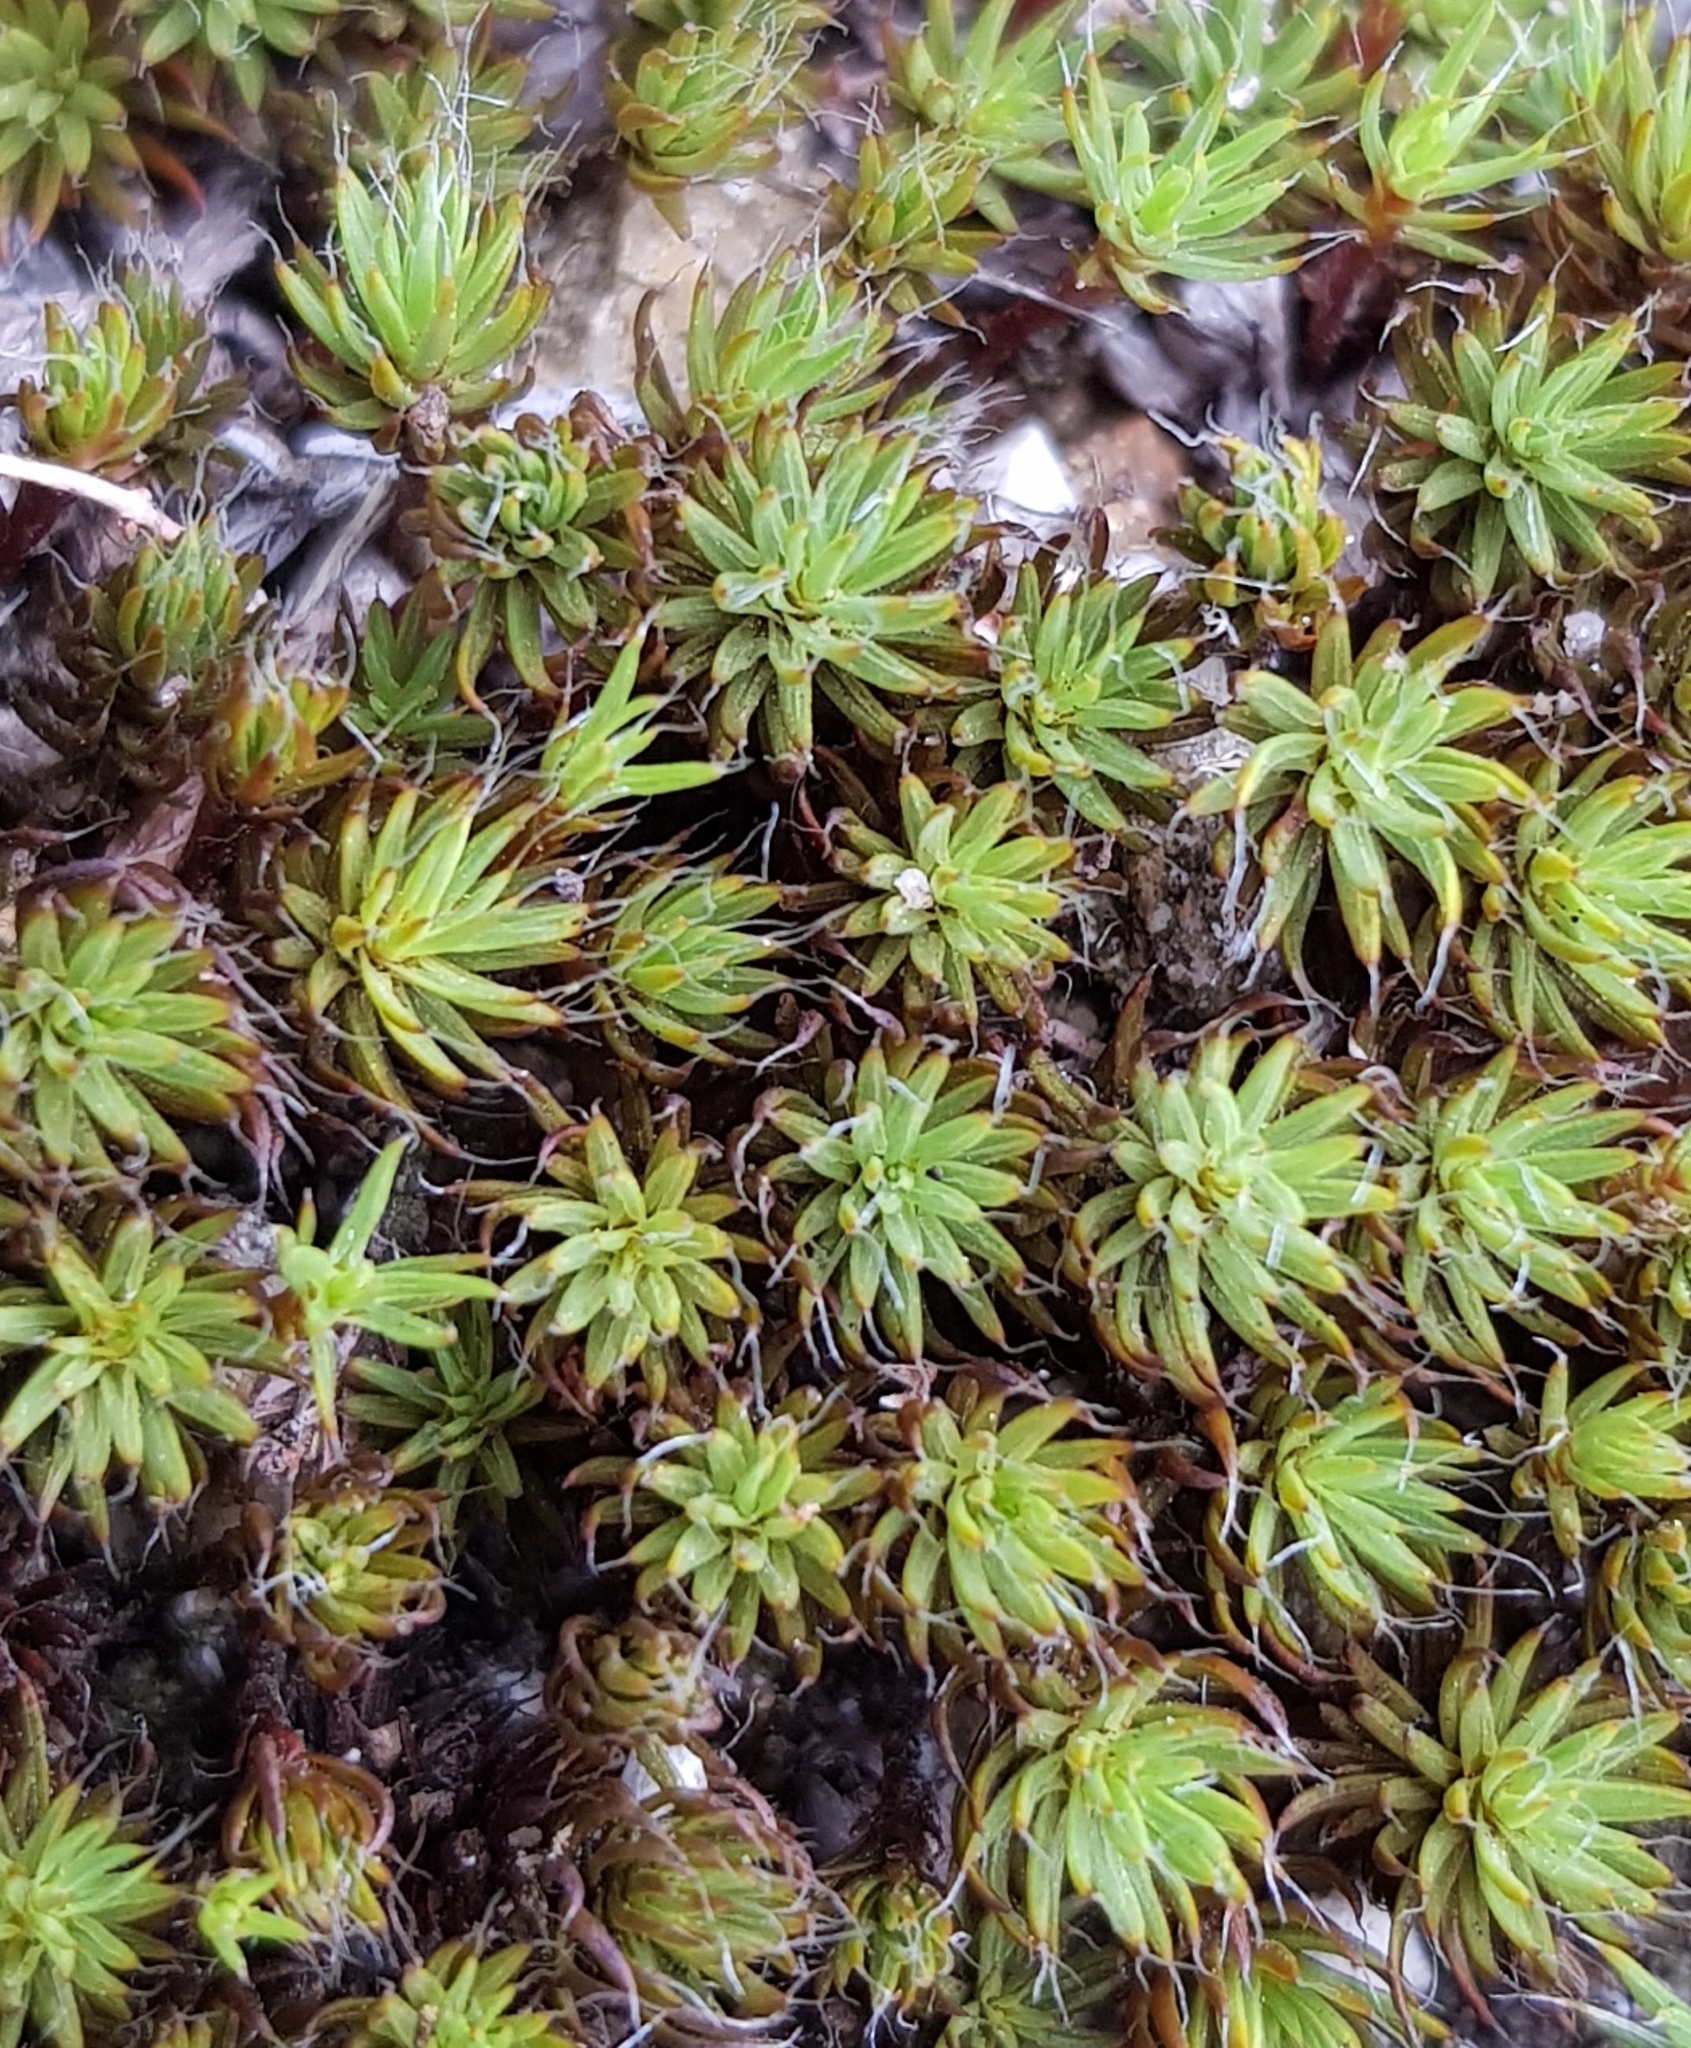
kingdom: Plantae
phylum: Bryophyta
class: Polytrichopsida
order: Polytrichales
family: Polytrichaceae
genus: Polytrichum
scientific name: Polytrichum piliferum
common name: Bristly haircap
